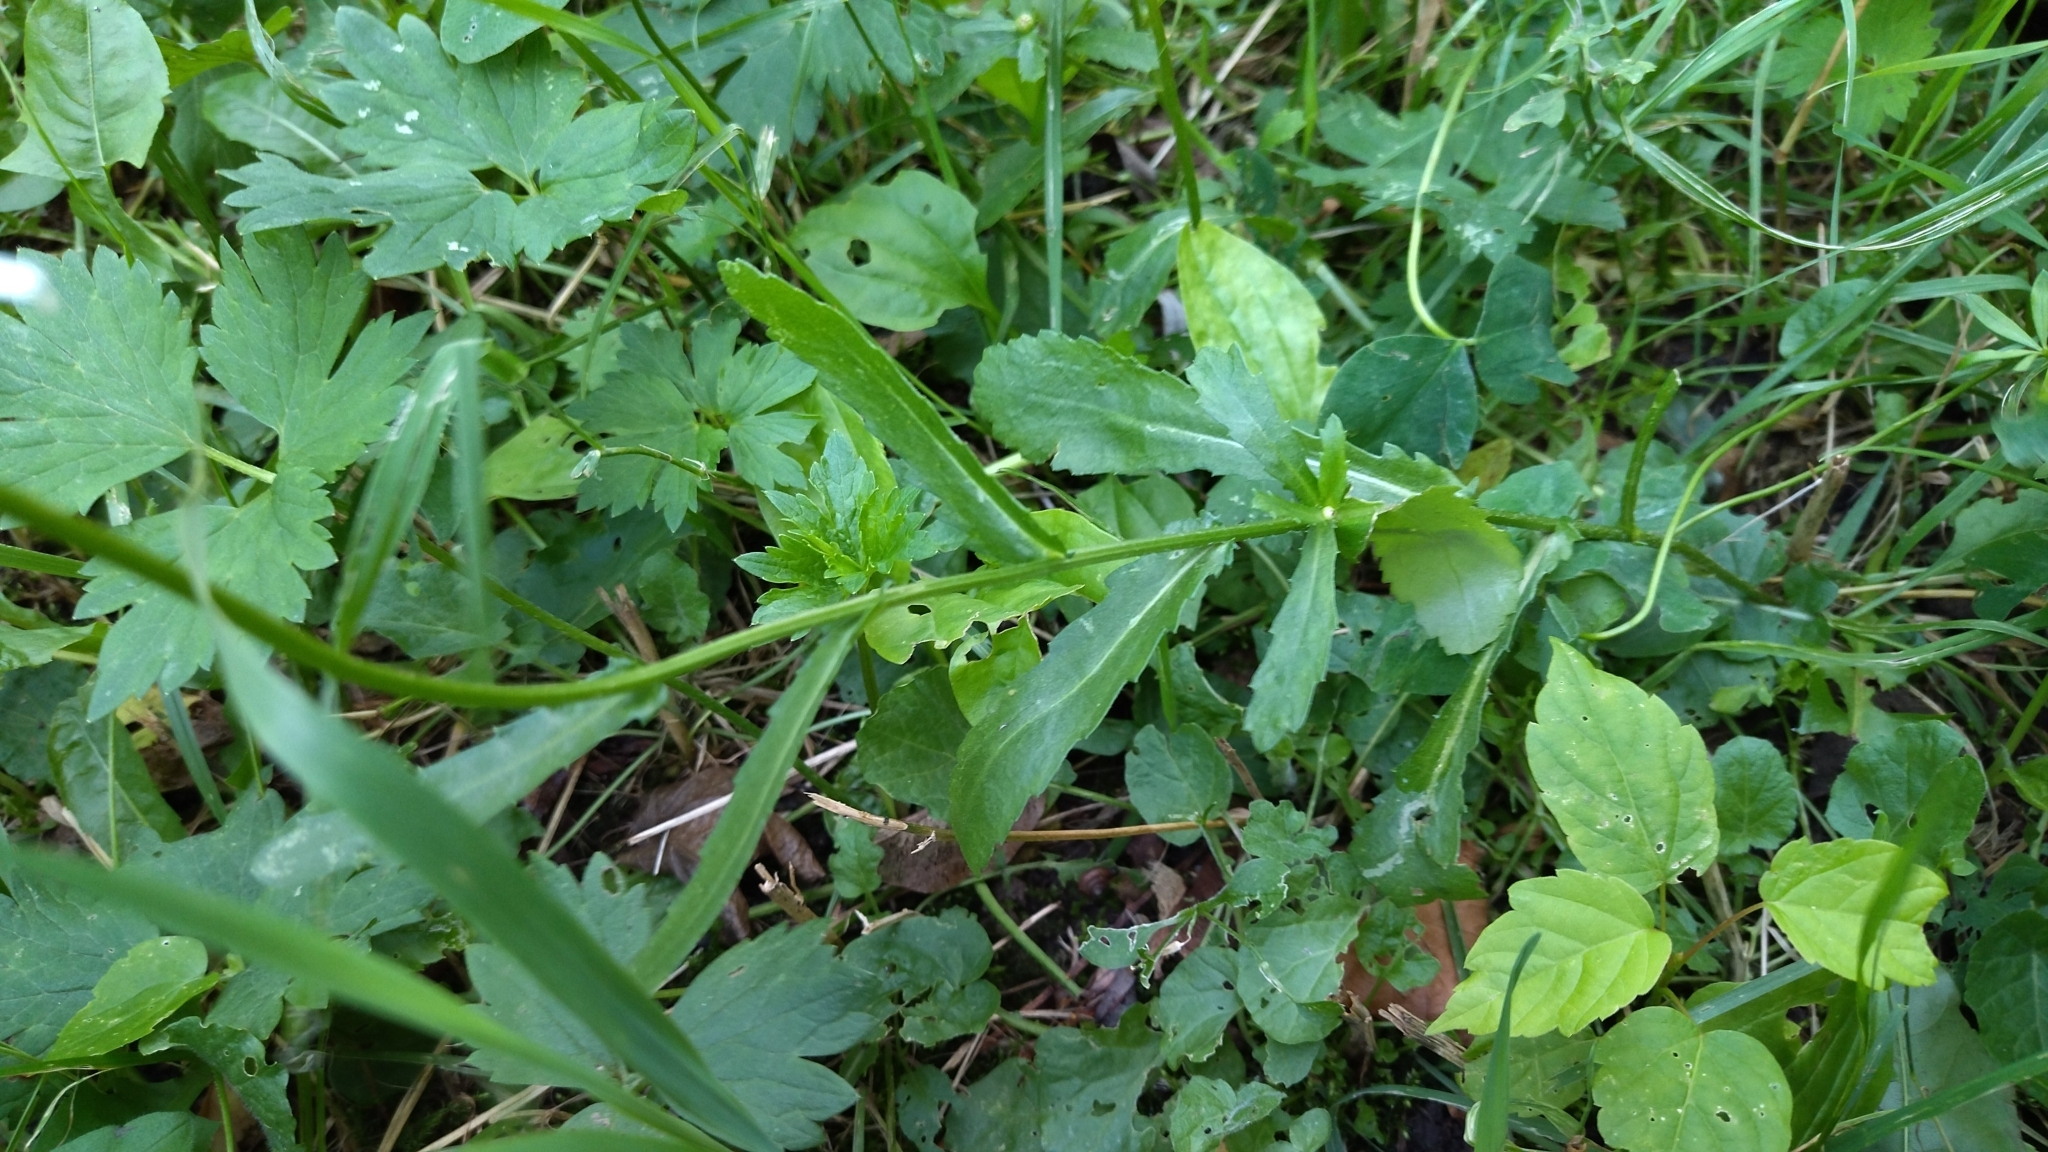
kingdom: Plantae
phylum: Tracheophyta
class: Magnoliopsida
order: Asterales
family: Asteraceae
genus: Leucanthemum
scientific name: Leucanthemum vulgare
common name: Oxeye daisy
